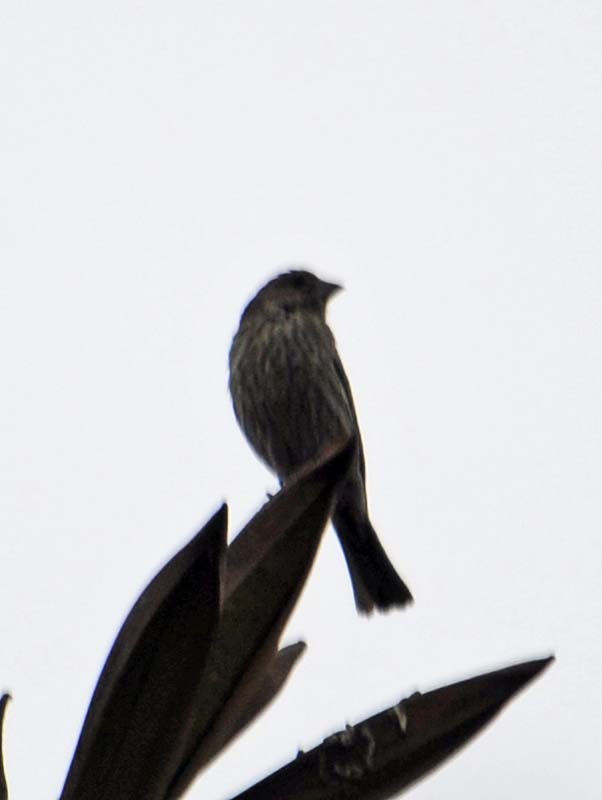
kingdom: Animalia
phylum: Chordata
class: Aves
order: Passeriformes
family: Fringillidae
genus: Haemorhous
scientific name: Haemorhous mexicanus
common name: House finch
